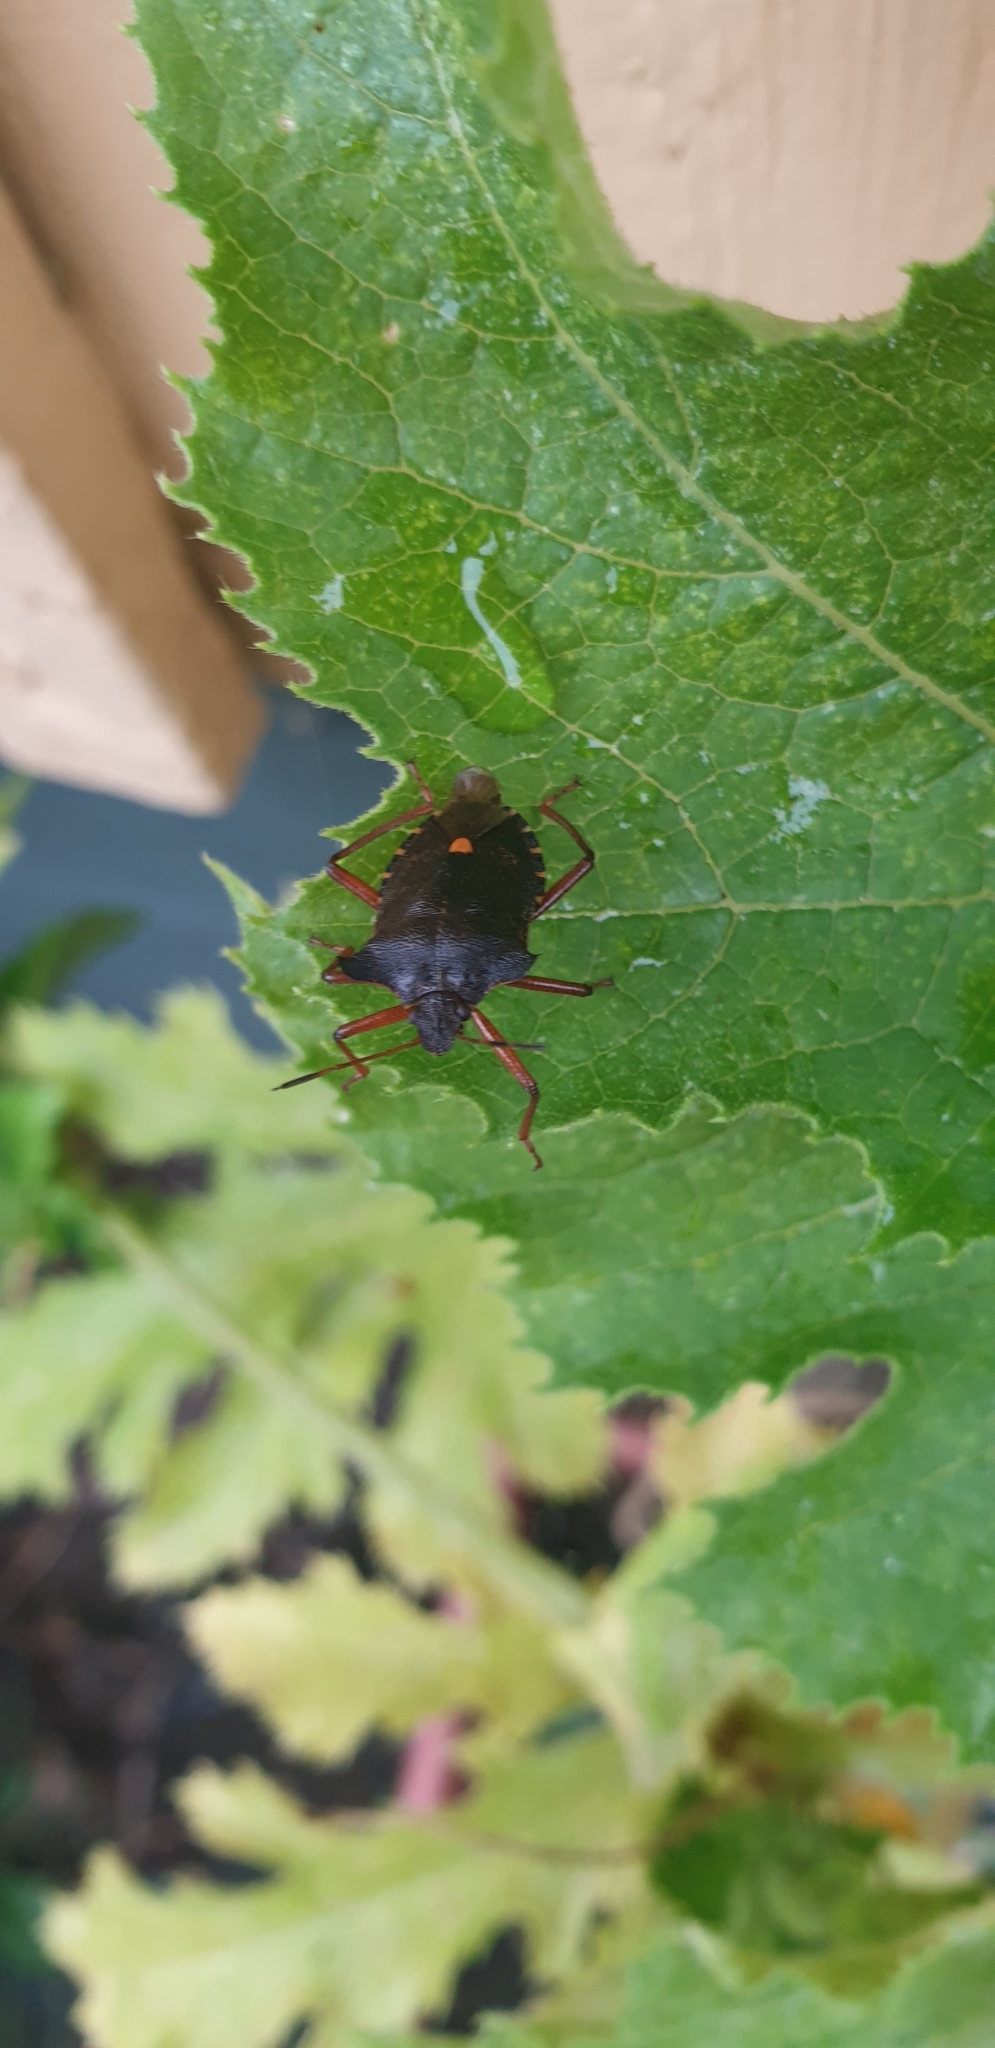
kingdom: Animalia
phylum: Arthropoda
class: Insecta
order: Hemiptera
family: Pentatomidae
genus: Pentatoma
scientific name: Pentatoma rufipes
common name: Forest bug
